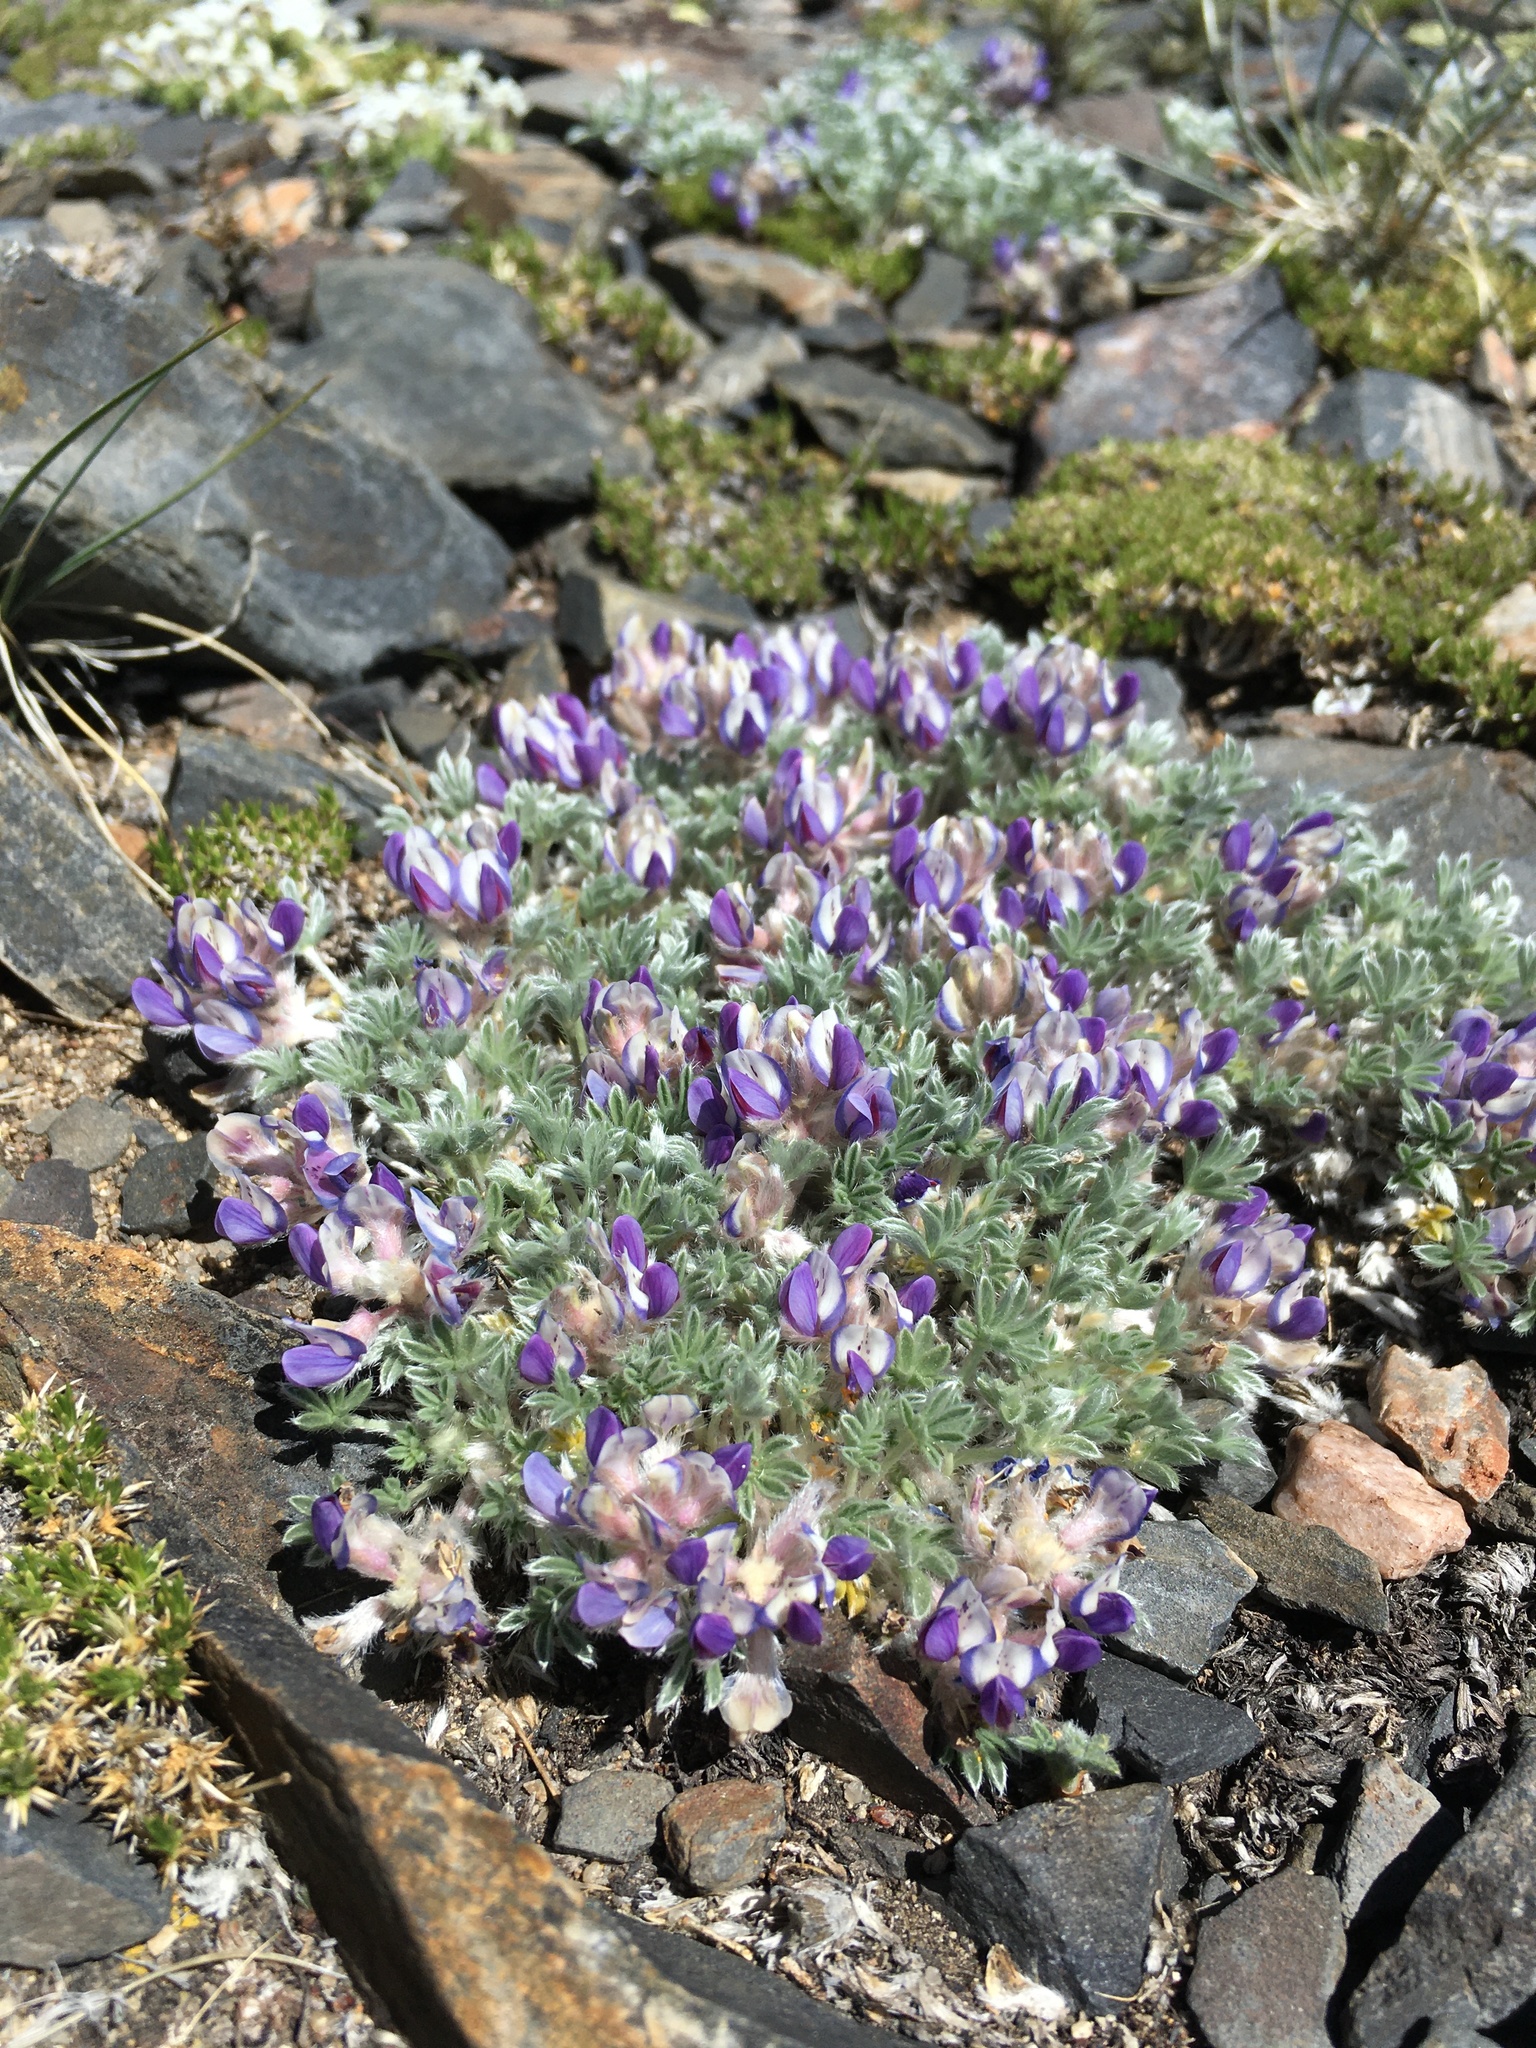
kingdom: Plantae
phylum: Tracheophyta
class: Magnoliopsida
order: Fabales
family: Fabaceae
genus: Lupinus
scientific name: Lupinus breweri
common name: Brewer's lupine
